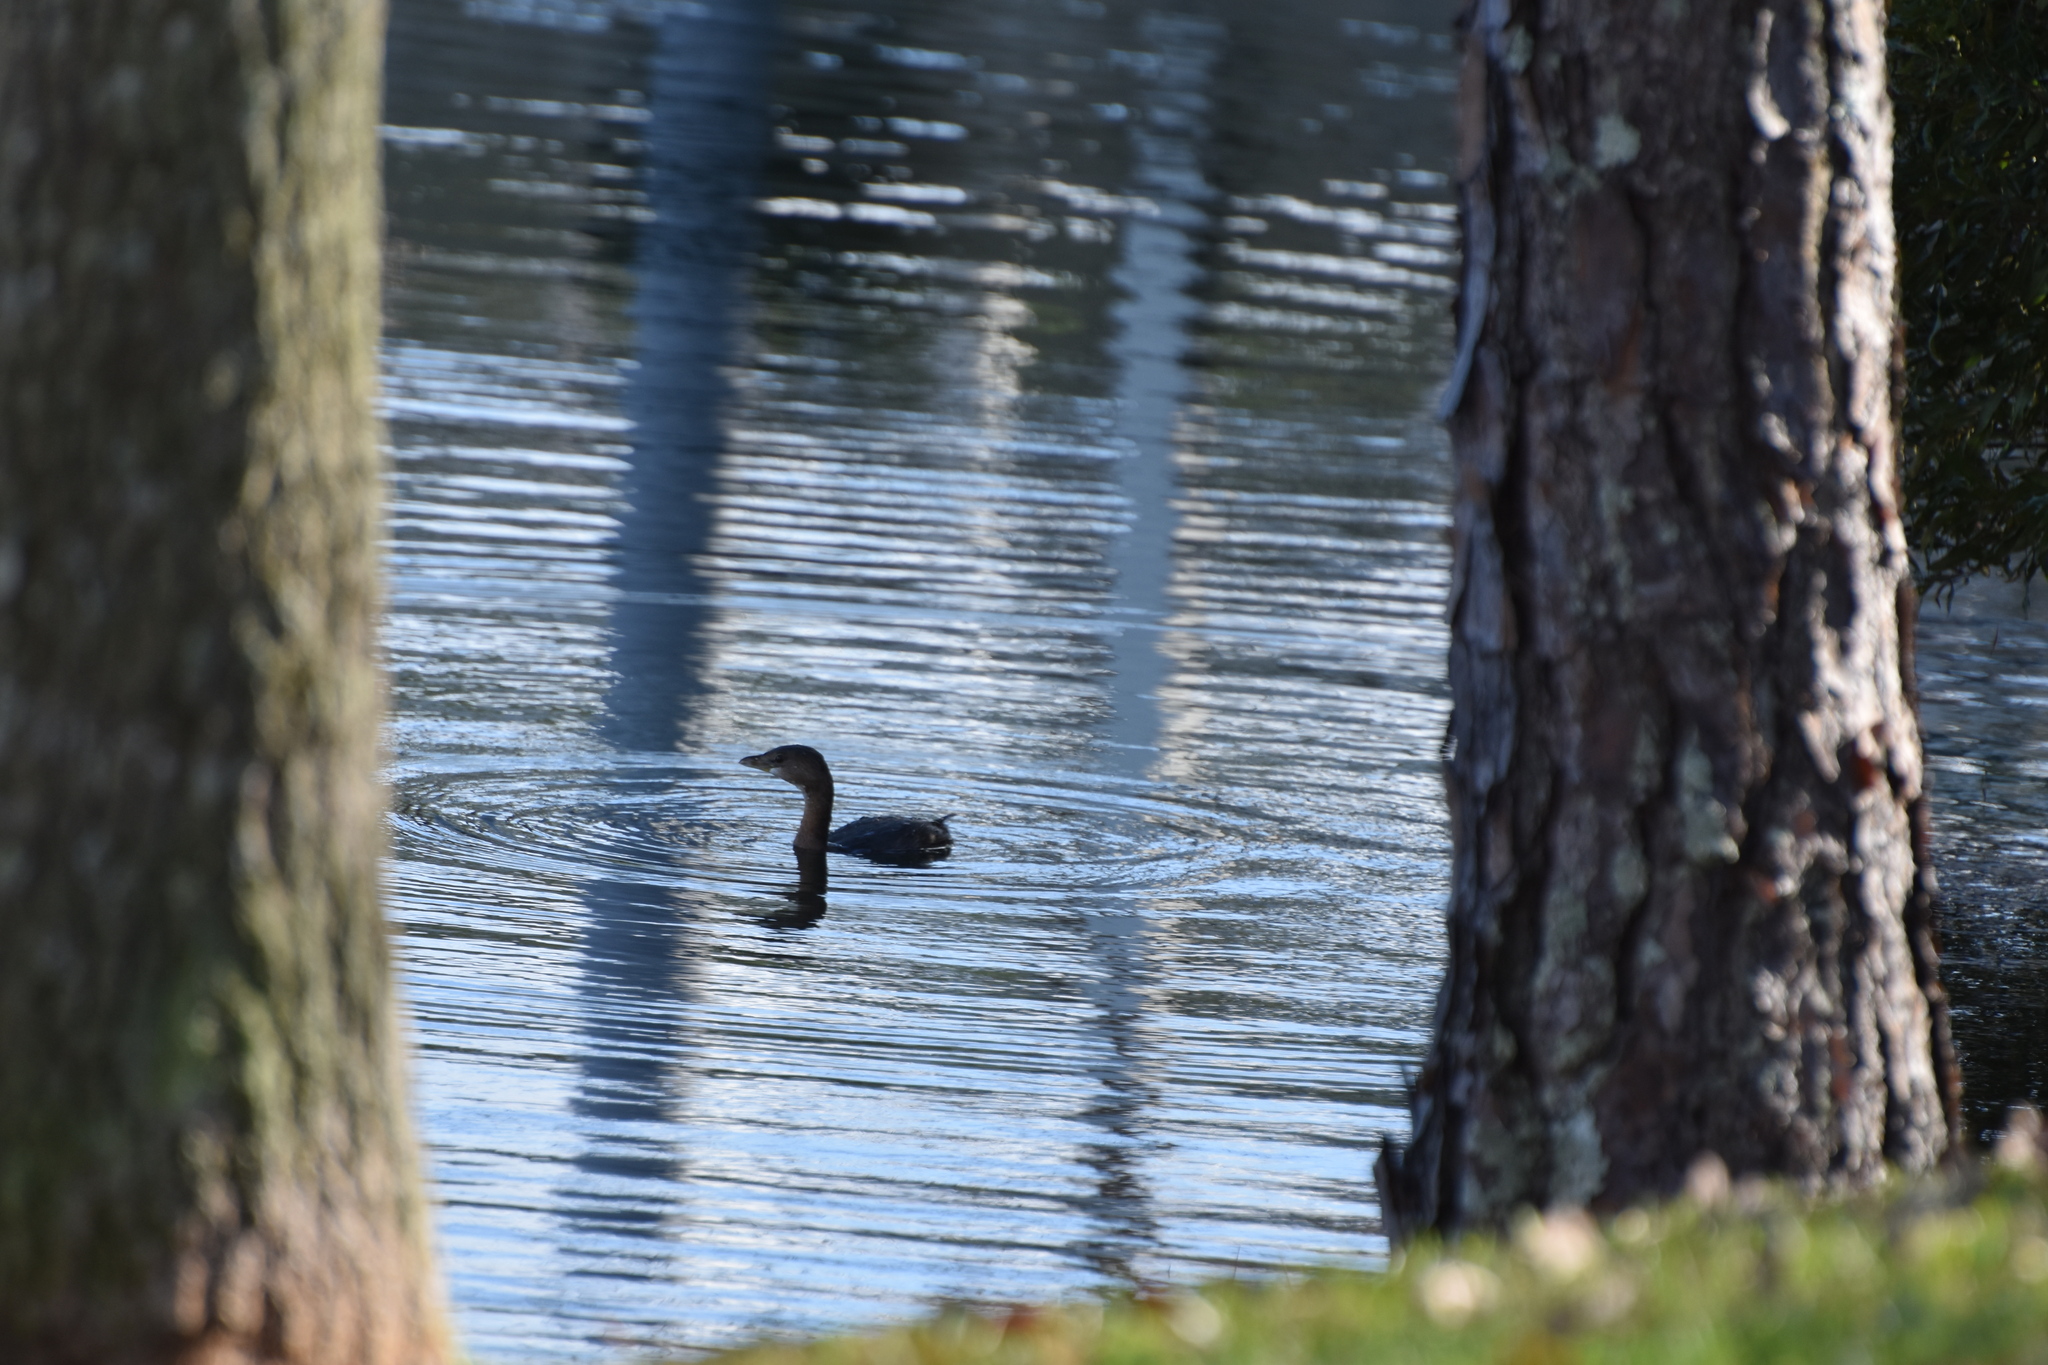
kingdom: Animalia
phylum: Chordata
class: Aves
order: Podicipediformes
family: Podicipedidae
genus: Podilymbus
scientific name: Podilymbus podiceps
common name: Pied-billed grebe
